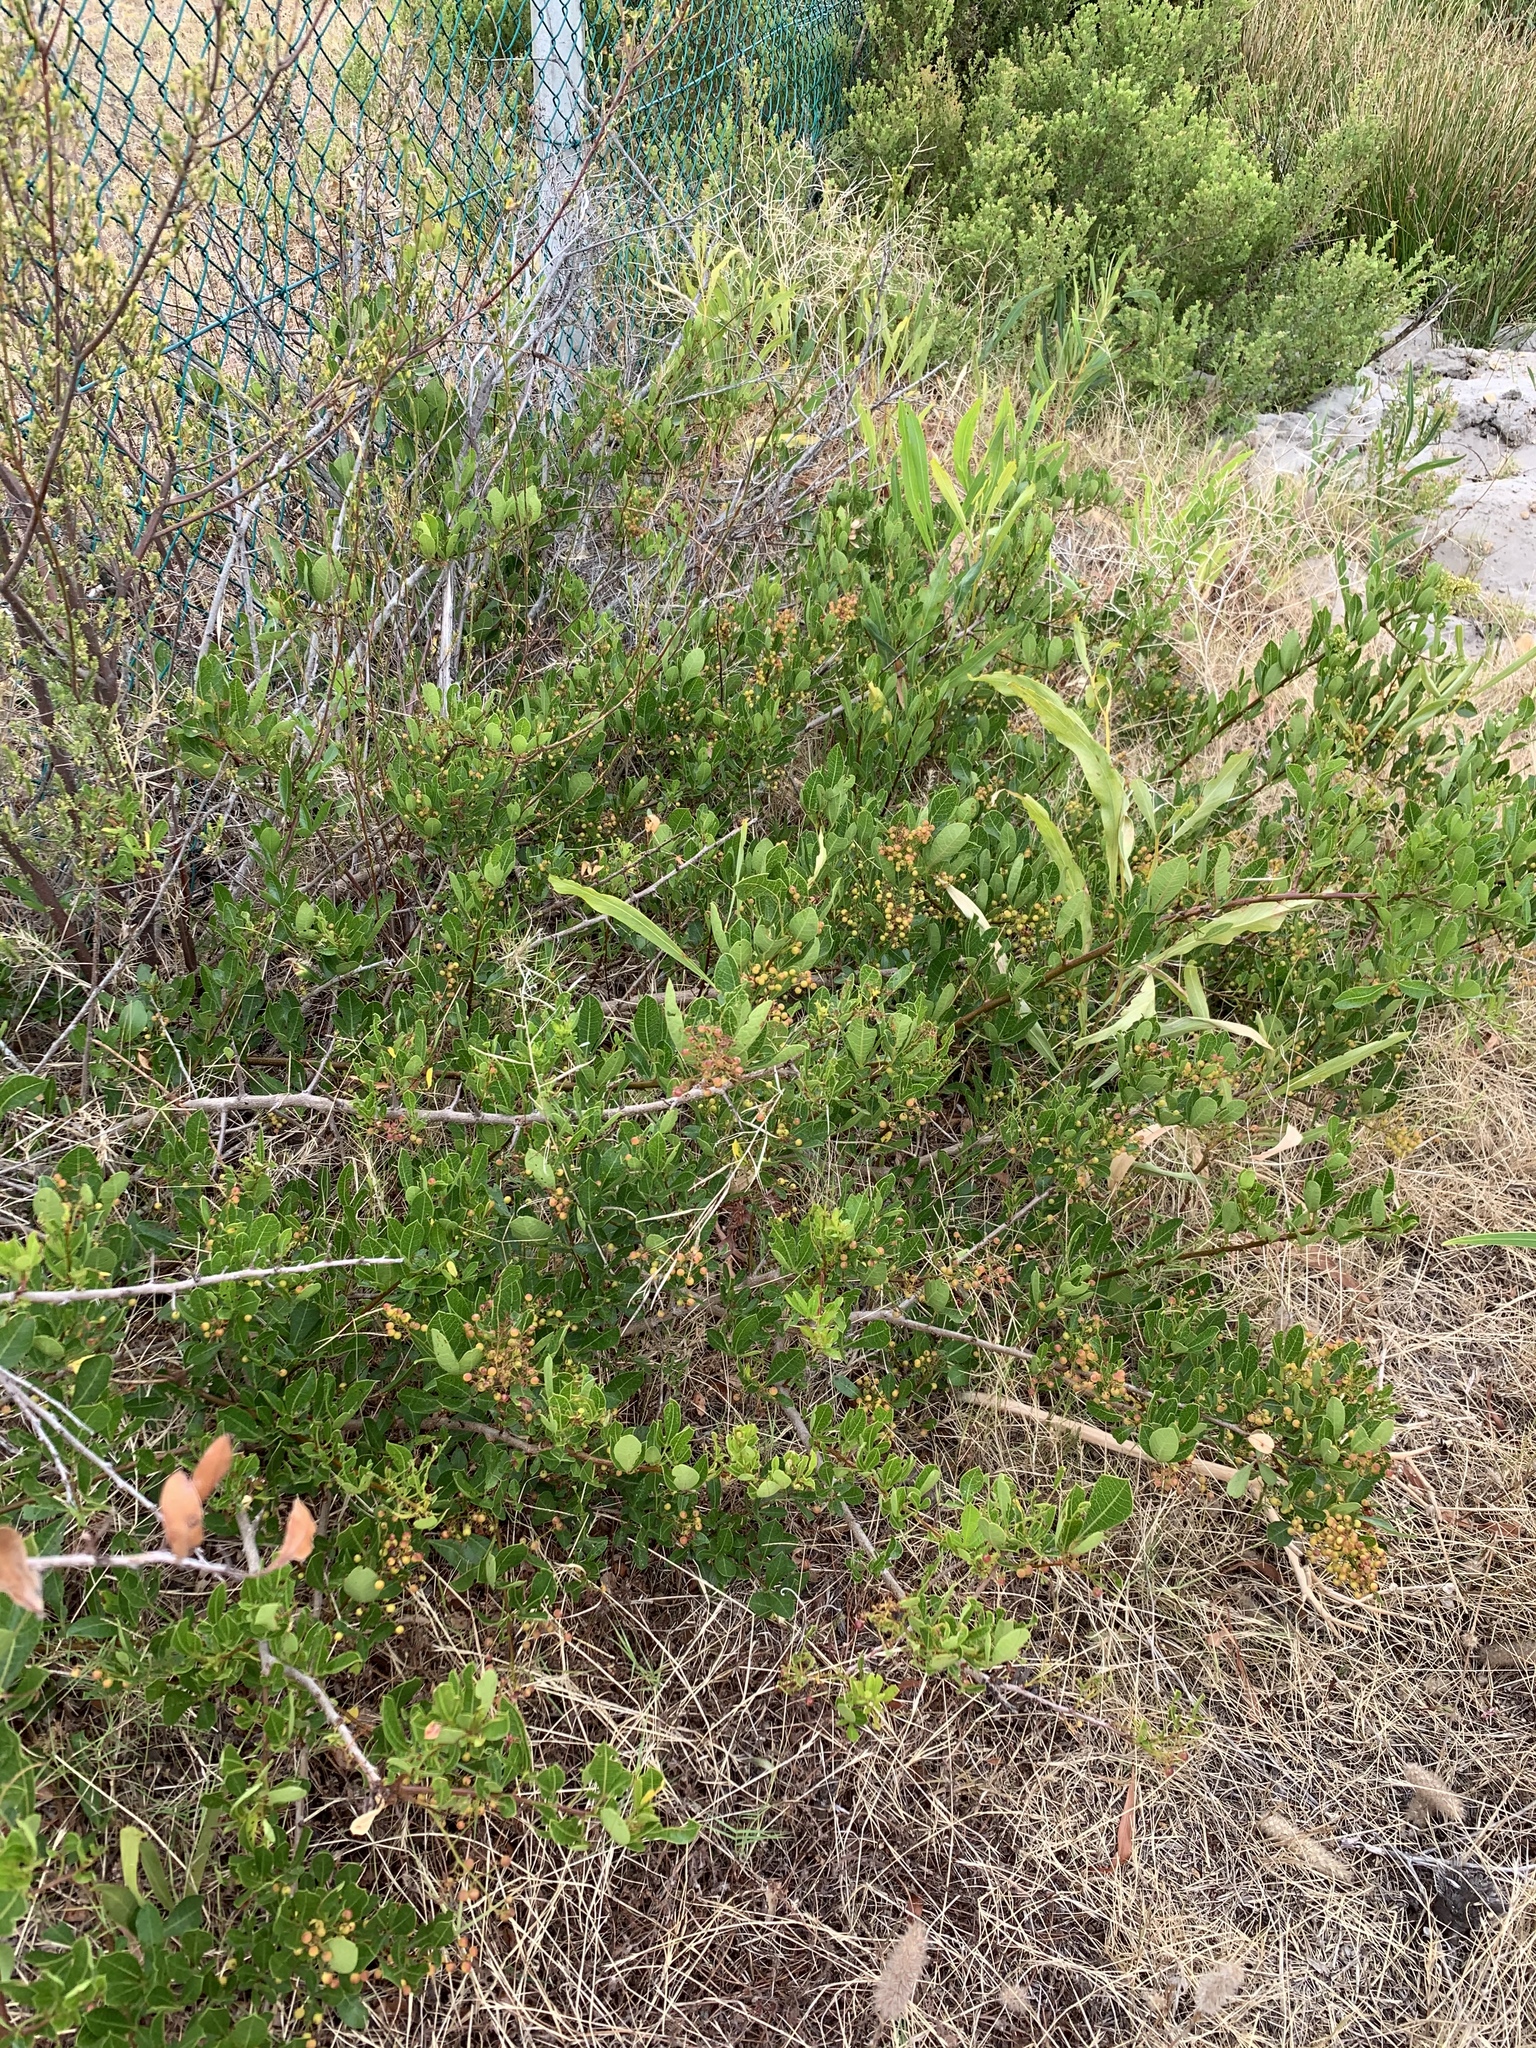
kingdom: Plantae
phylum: Tracheophyta
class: Magnoliopsida
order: Sapindales
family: Anacardiaceae
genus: Searsia
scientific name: Searsia laevigata
